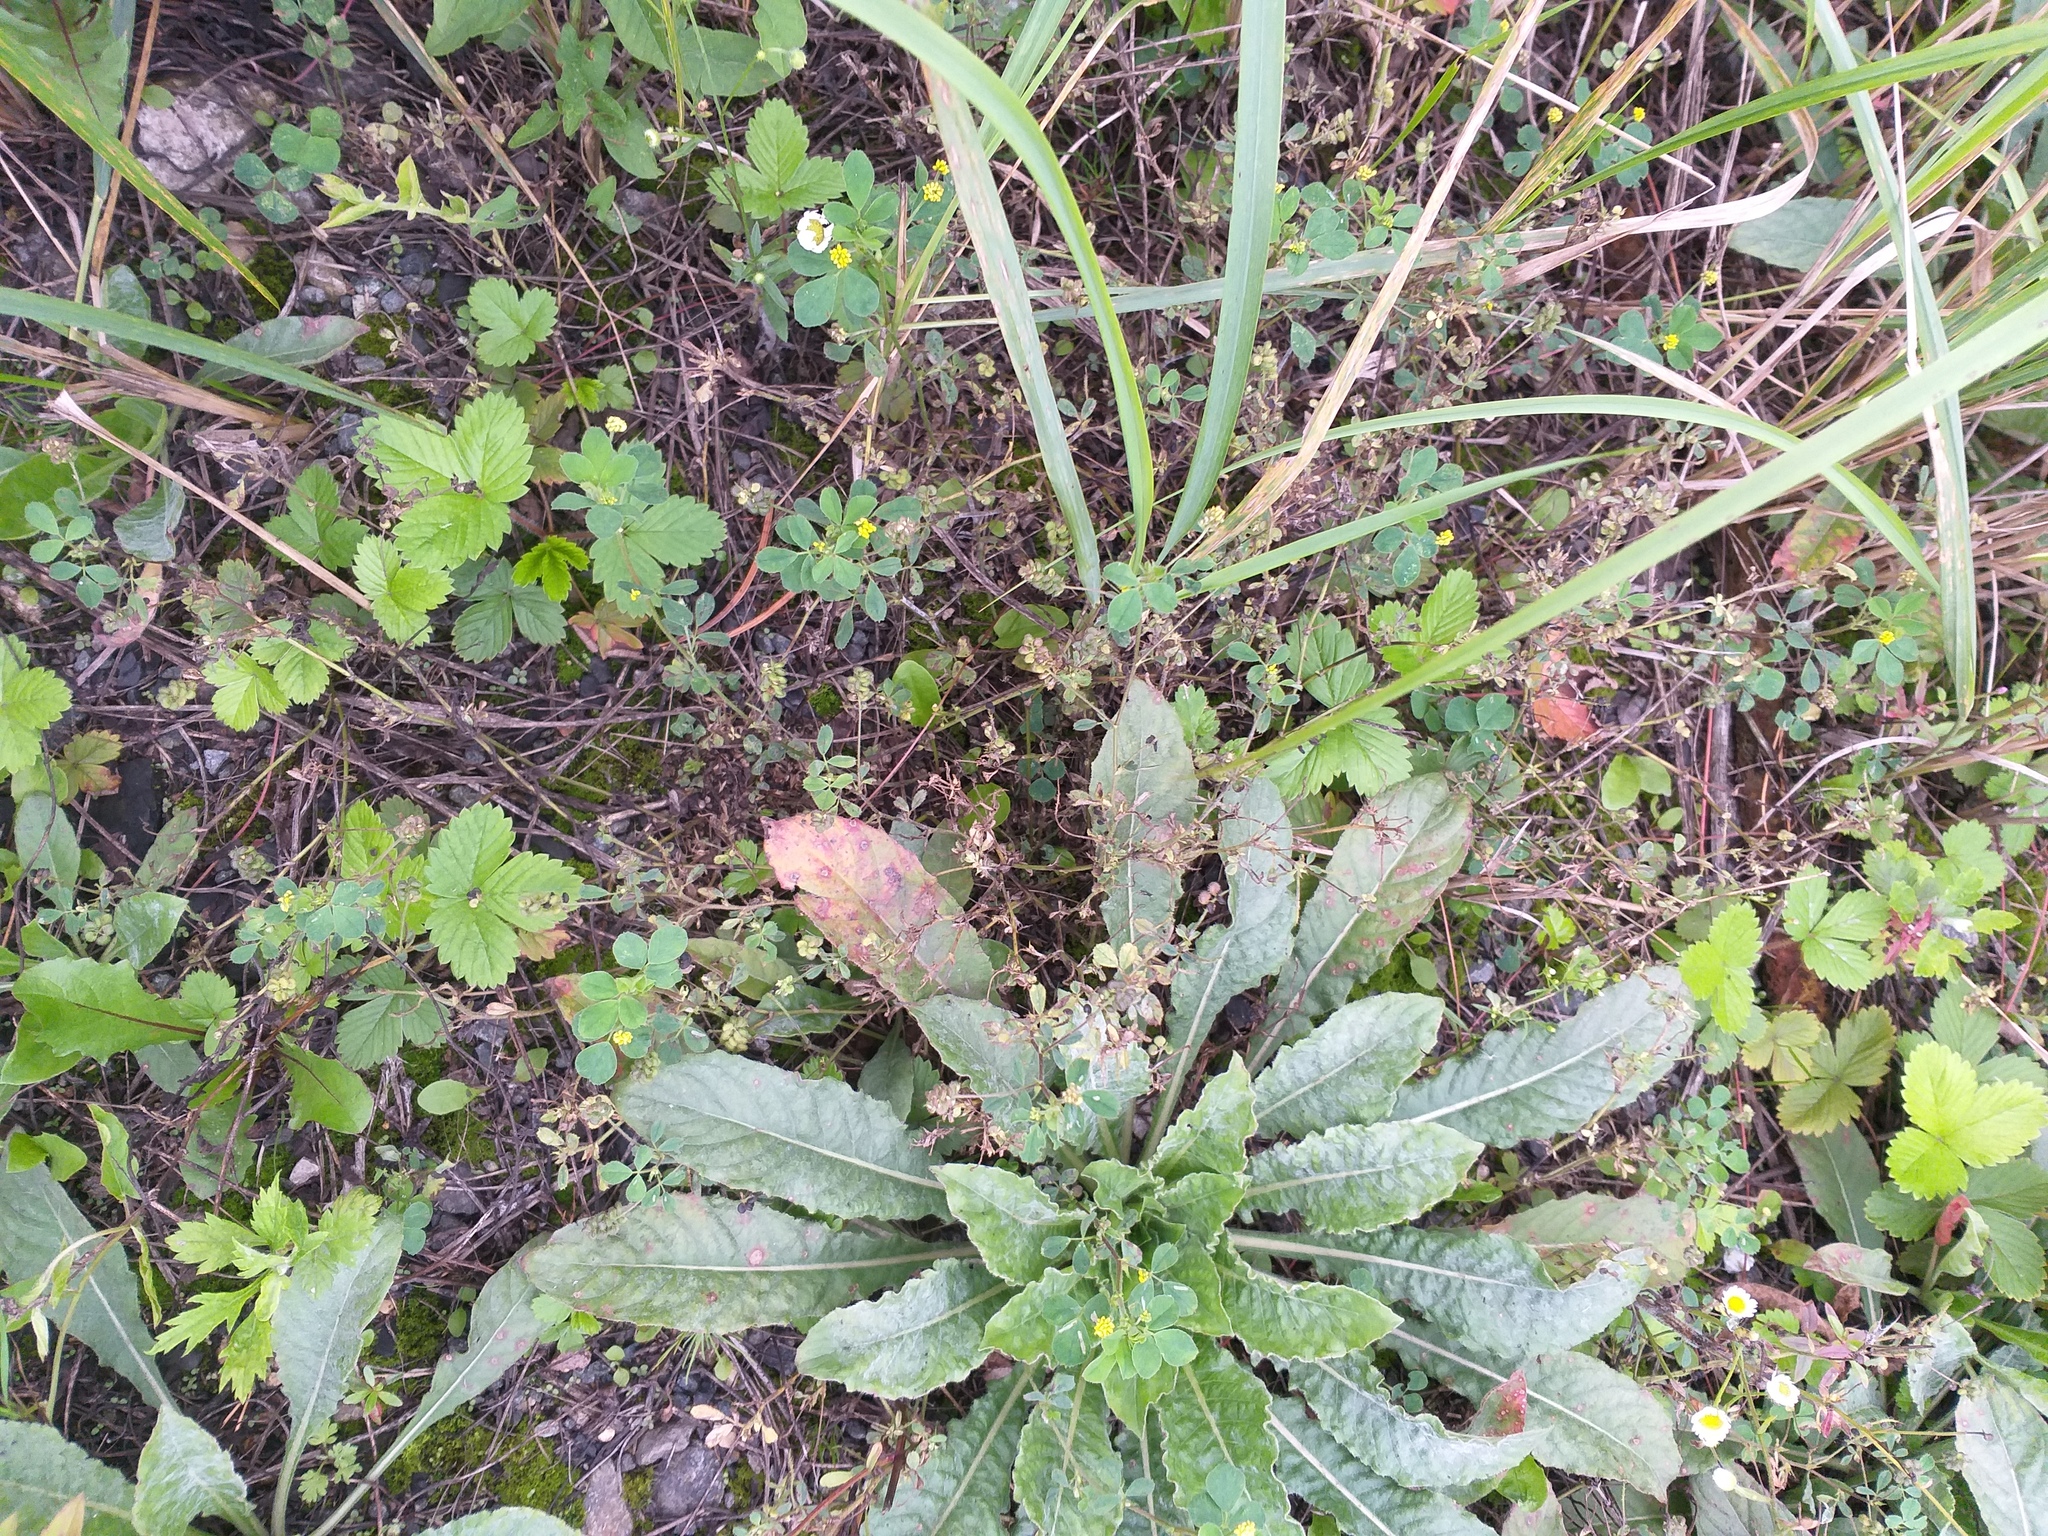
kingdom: Plantae
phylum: Tracheophyta
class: Magnoliopsida
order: Fabales
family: Fabaceae
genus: Medicago
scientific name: Medicago lupulina
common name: Black medick
